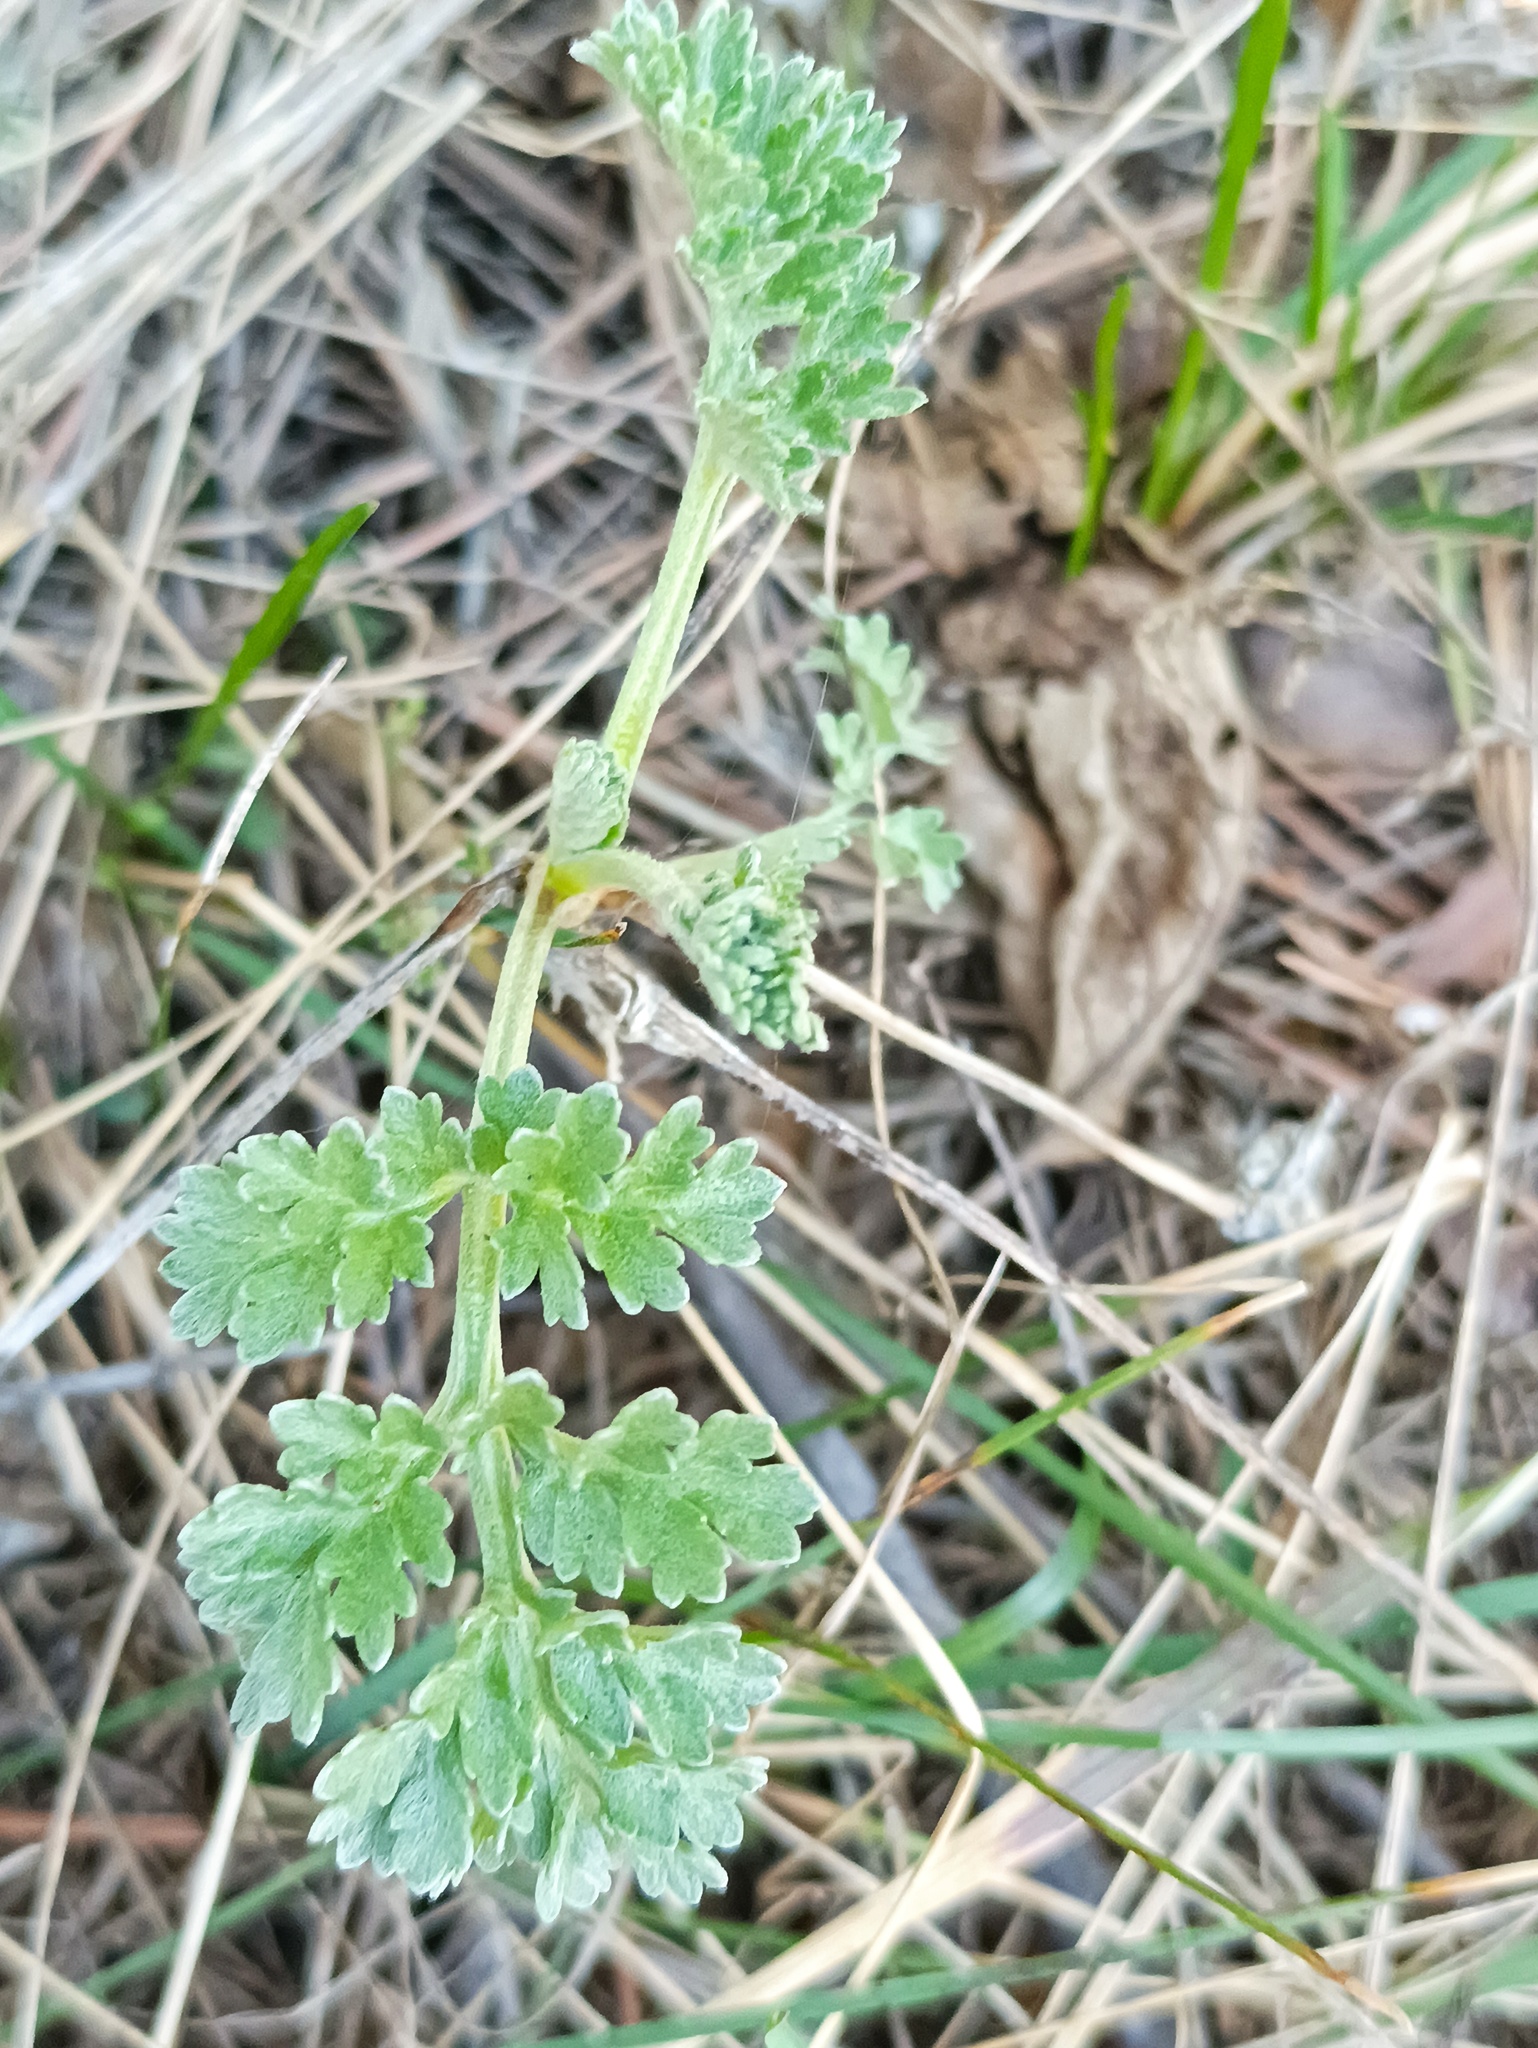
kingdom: Plantae
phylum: Tracheophyta
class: Magnoliopsida
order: Asterales
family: Asteraceae
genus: Artemisia
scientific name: Artemisia absinthium
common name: Wormwood
